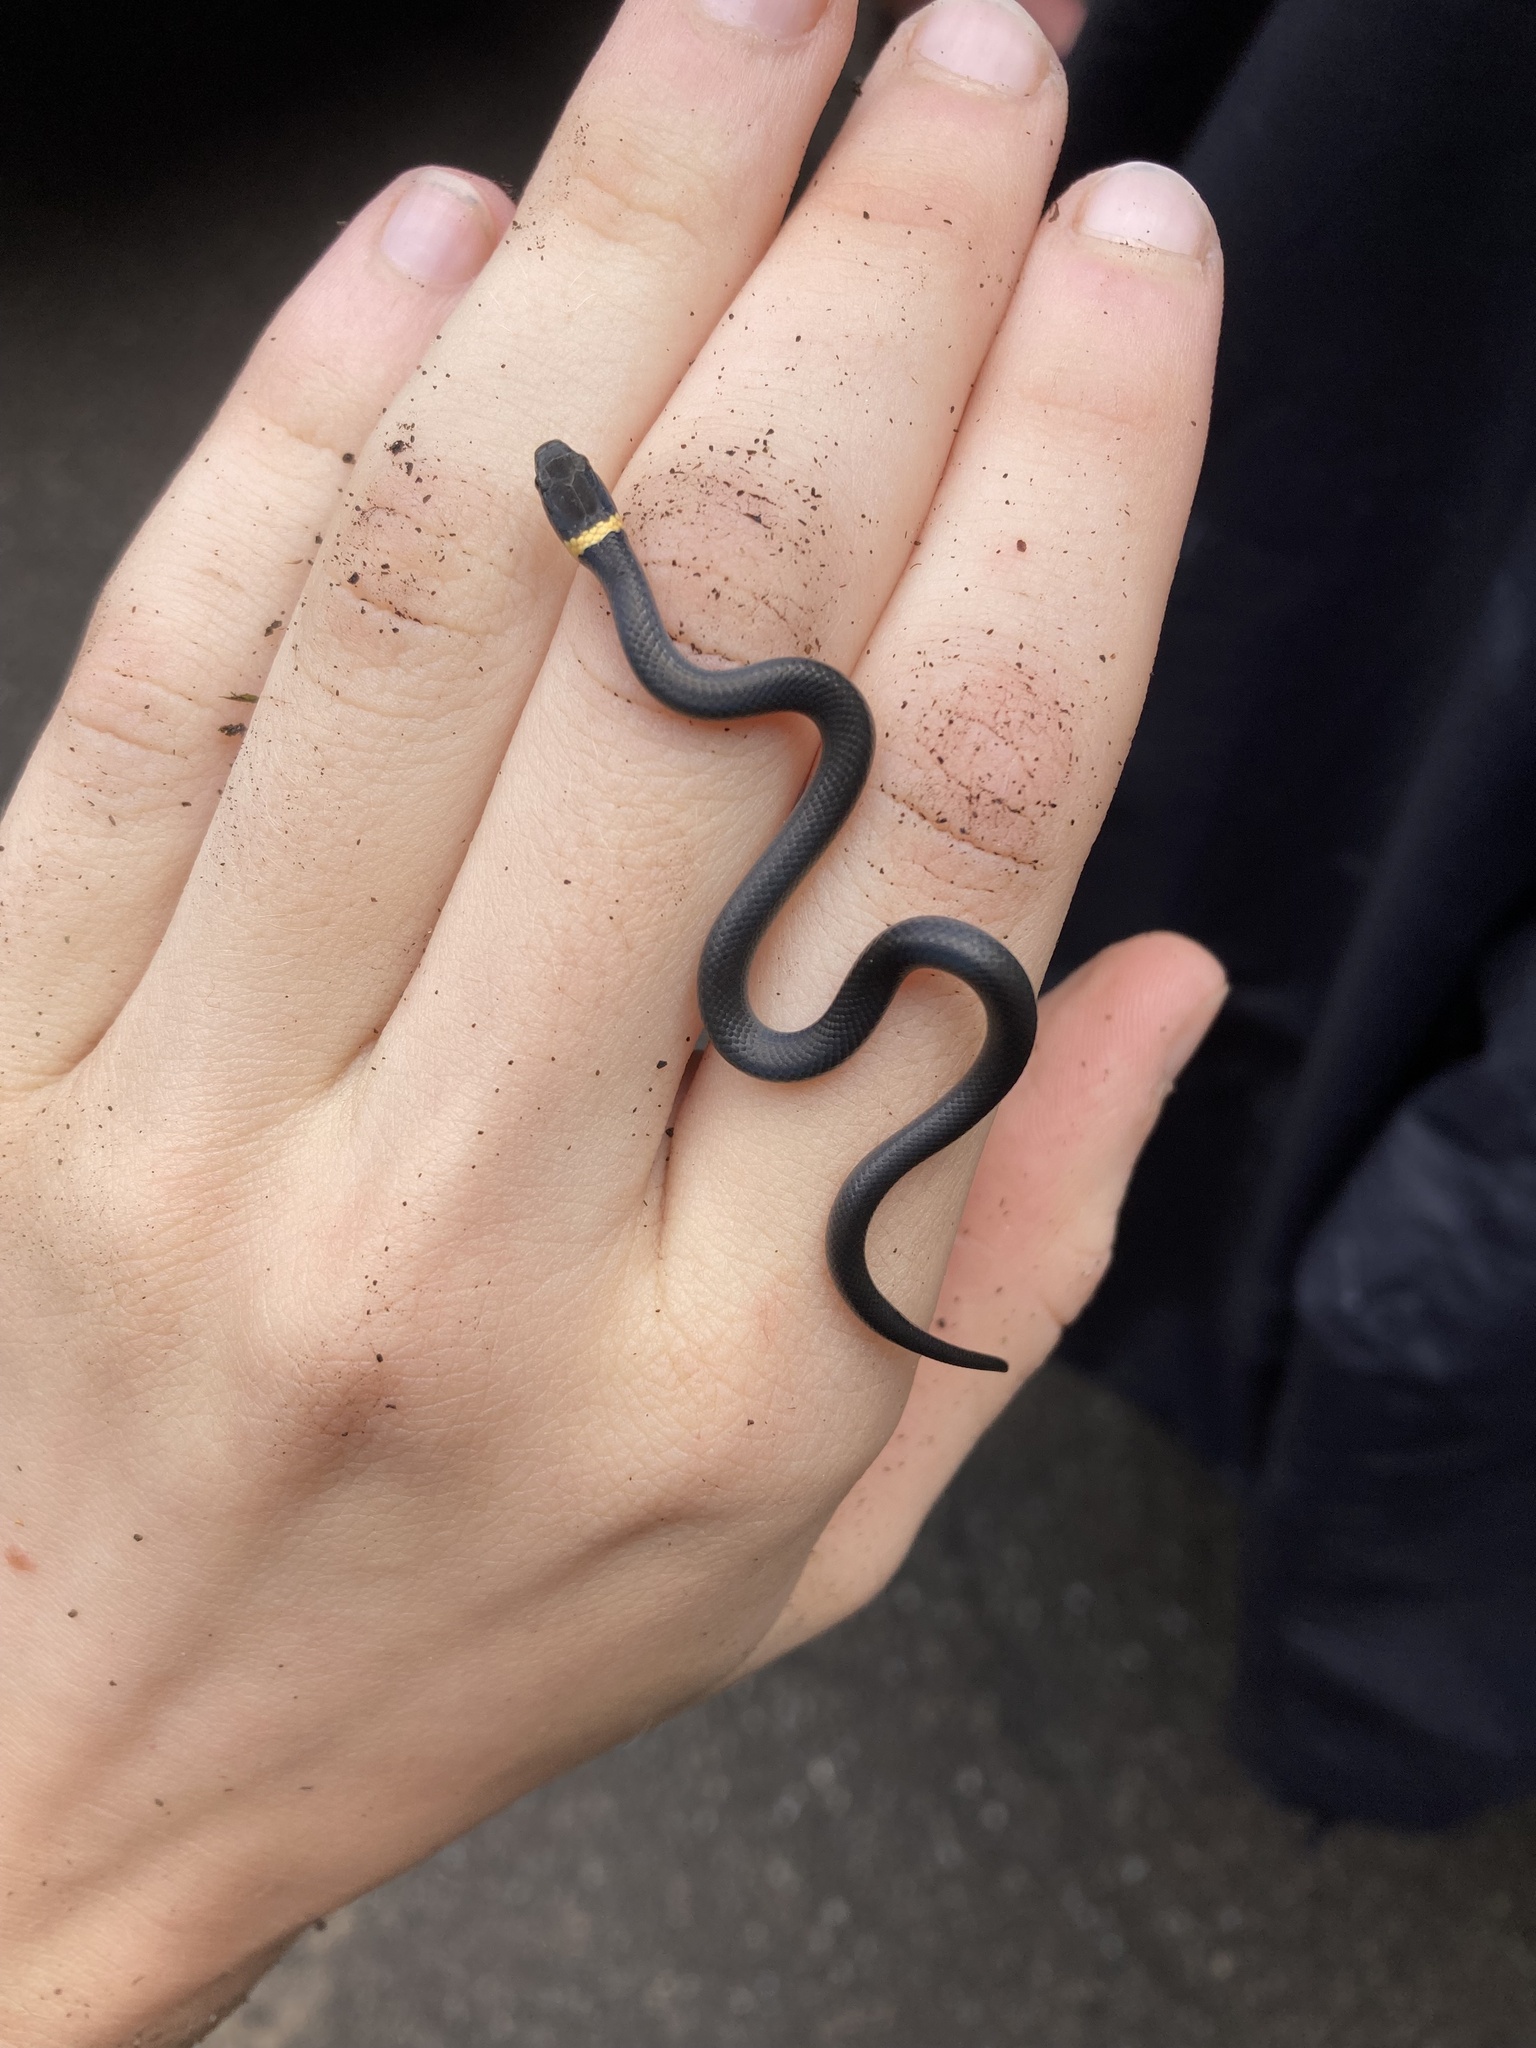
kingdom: Animalia
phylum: Chordata
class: Squamata
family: Colubridae
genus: Diadophis
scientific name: Diadophis punctatus
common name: Ringneck snake
